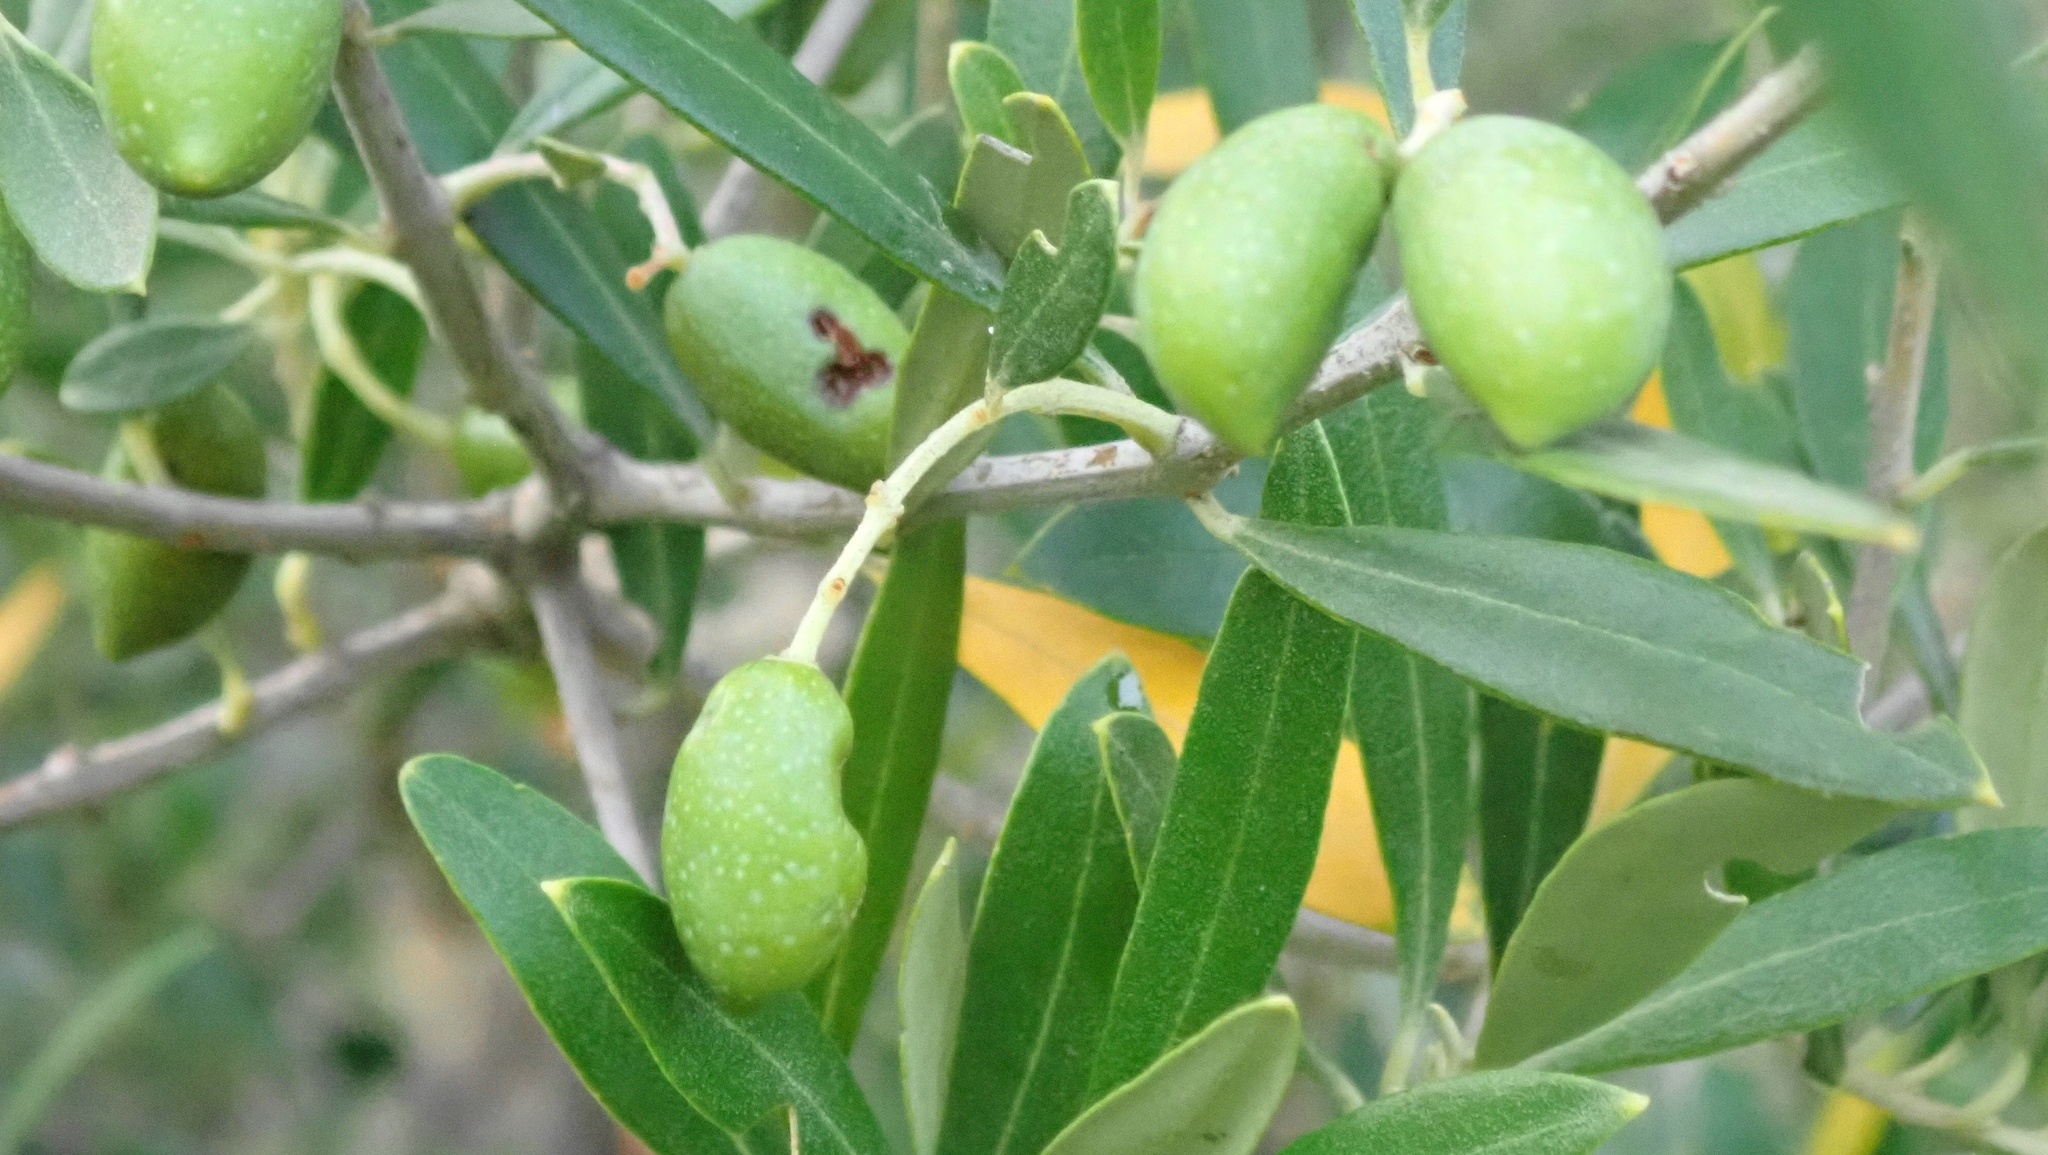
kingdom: Plantae
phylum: Tracheophyta
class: Magnoliopsida
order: Lamiales
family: Oleaceae
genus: Olea
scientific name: Olea europaea
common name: Olive
